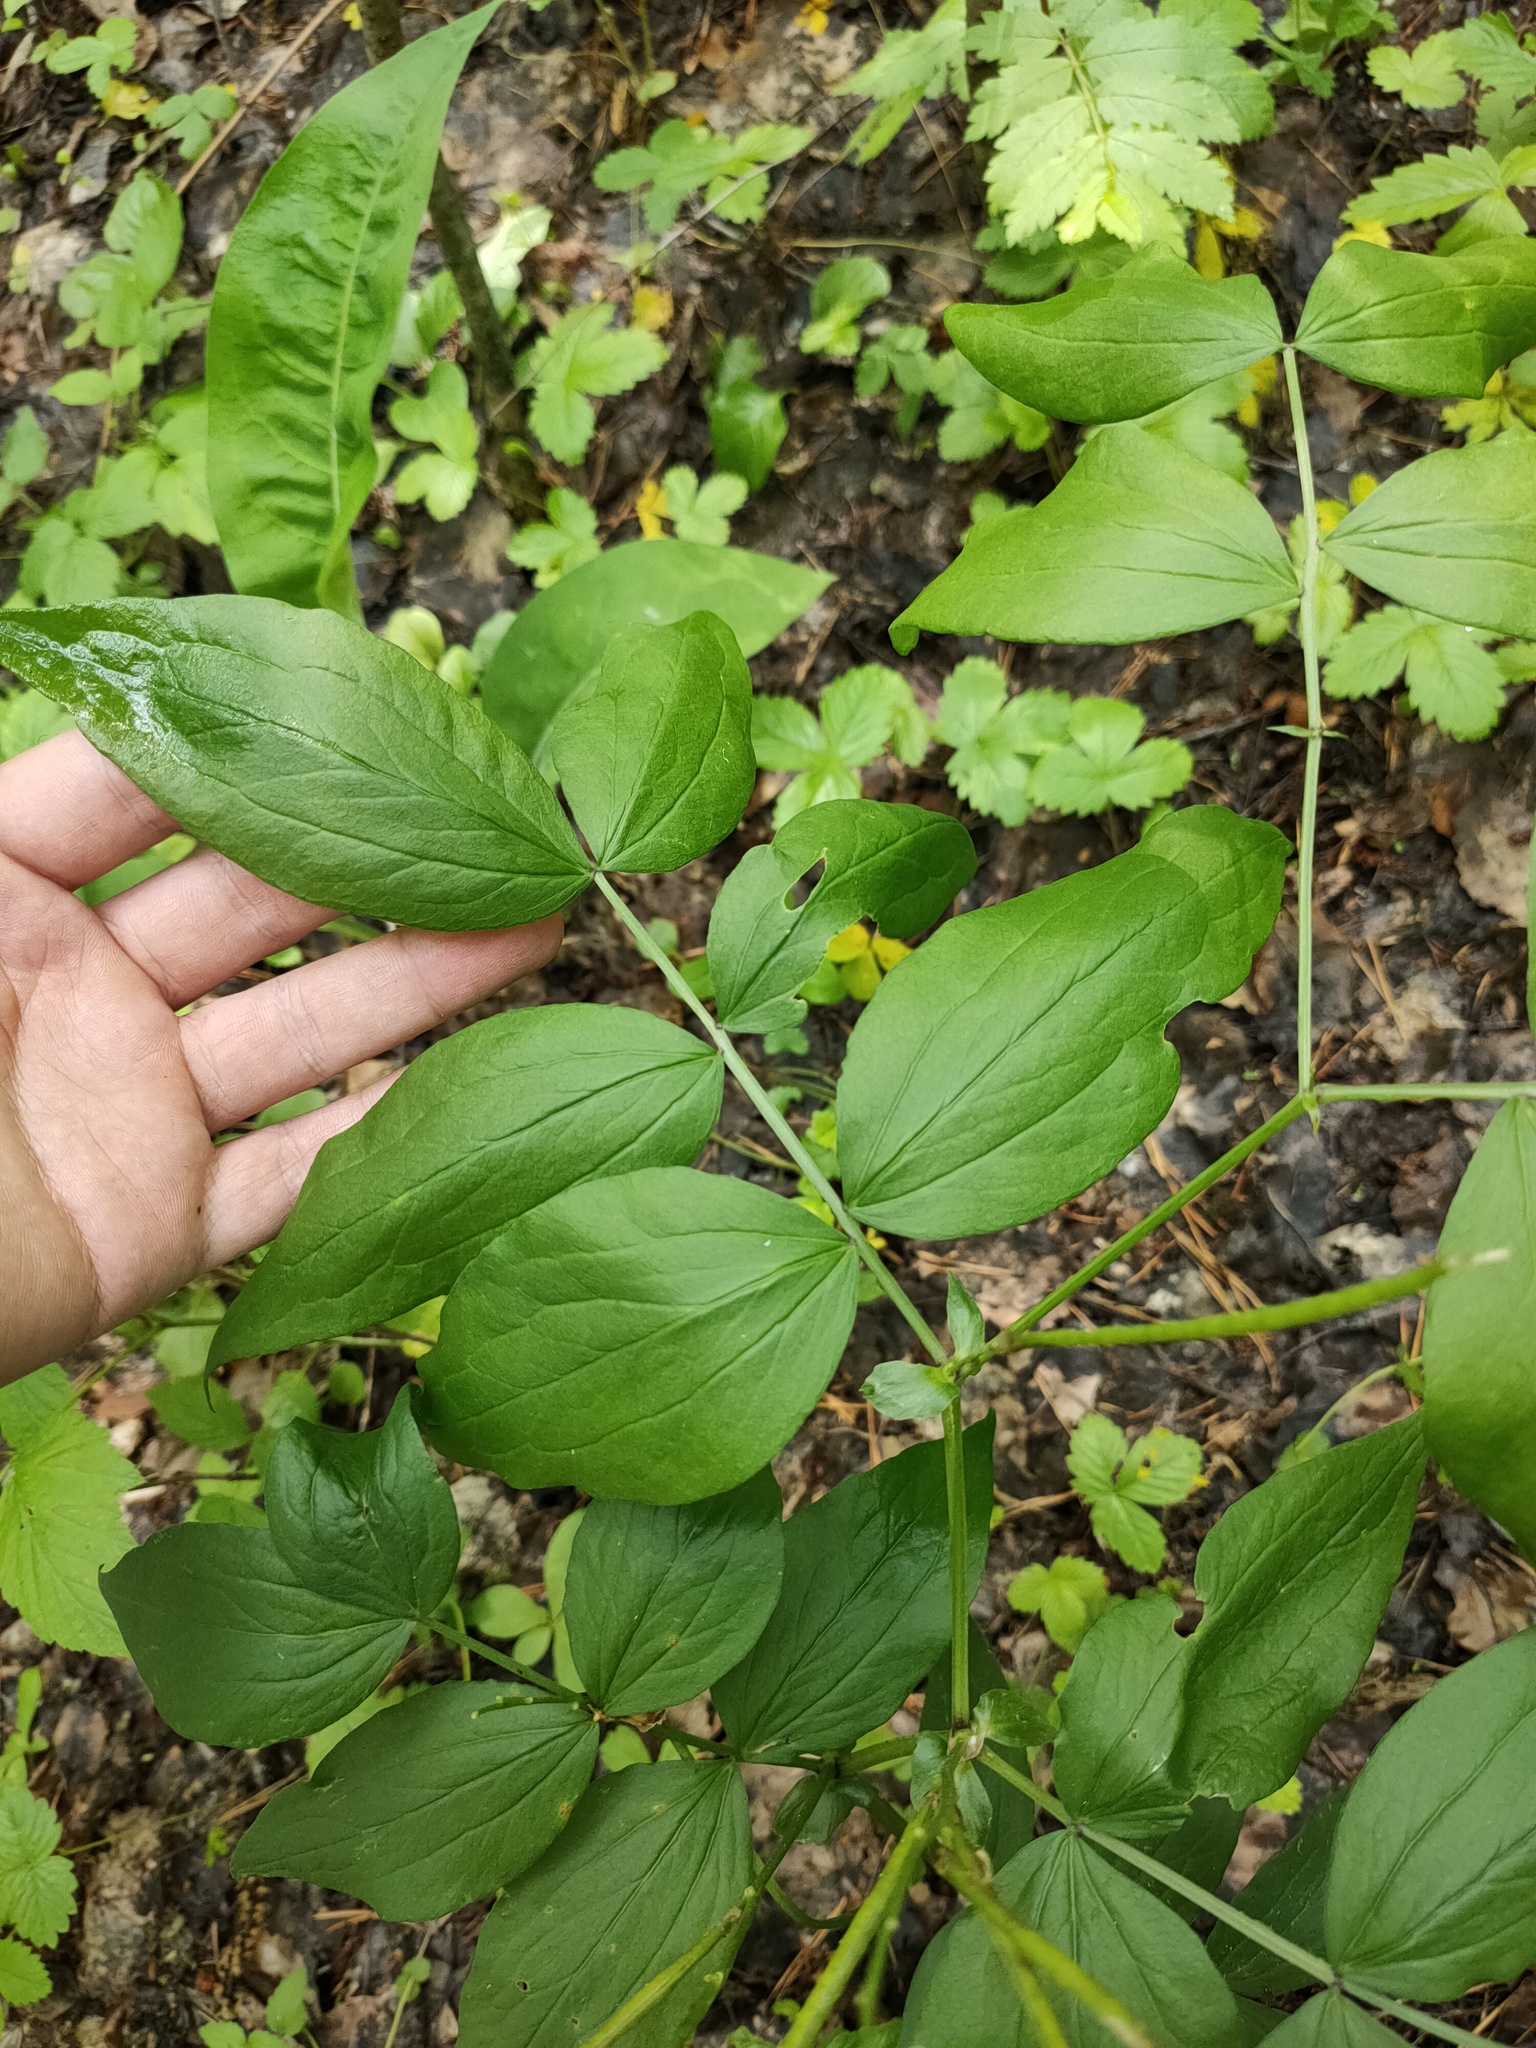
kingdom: Plantae
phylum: Tracheophyta
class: Magnoliopsida
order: Fabales
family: Fabaceae
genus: Lathyrus
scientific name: Lathyrus vernus
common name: Spring pea
